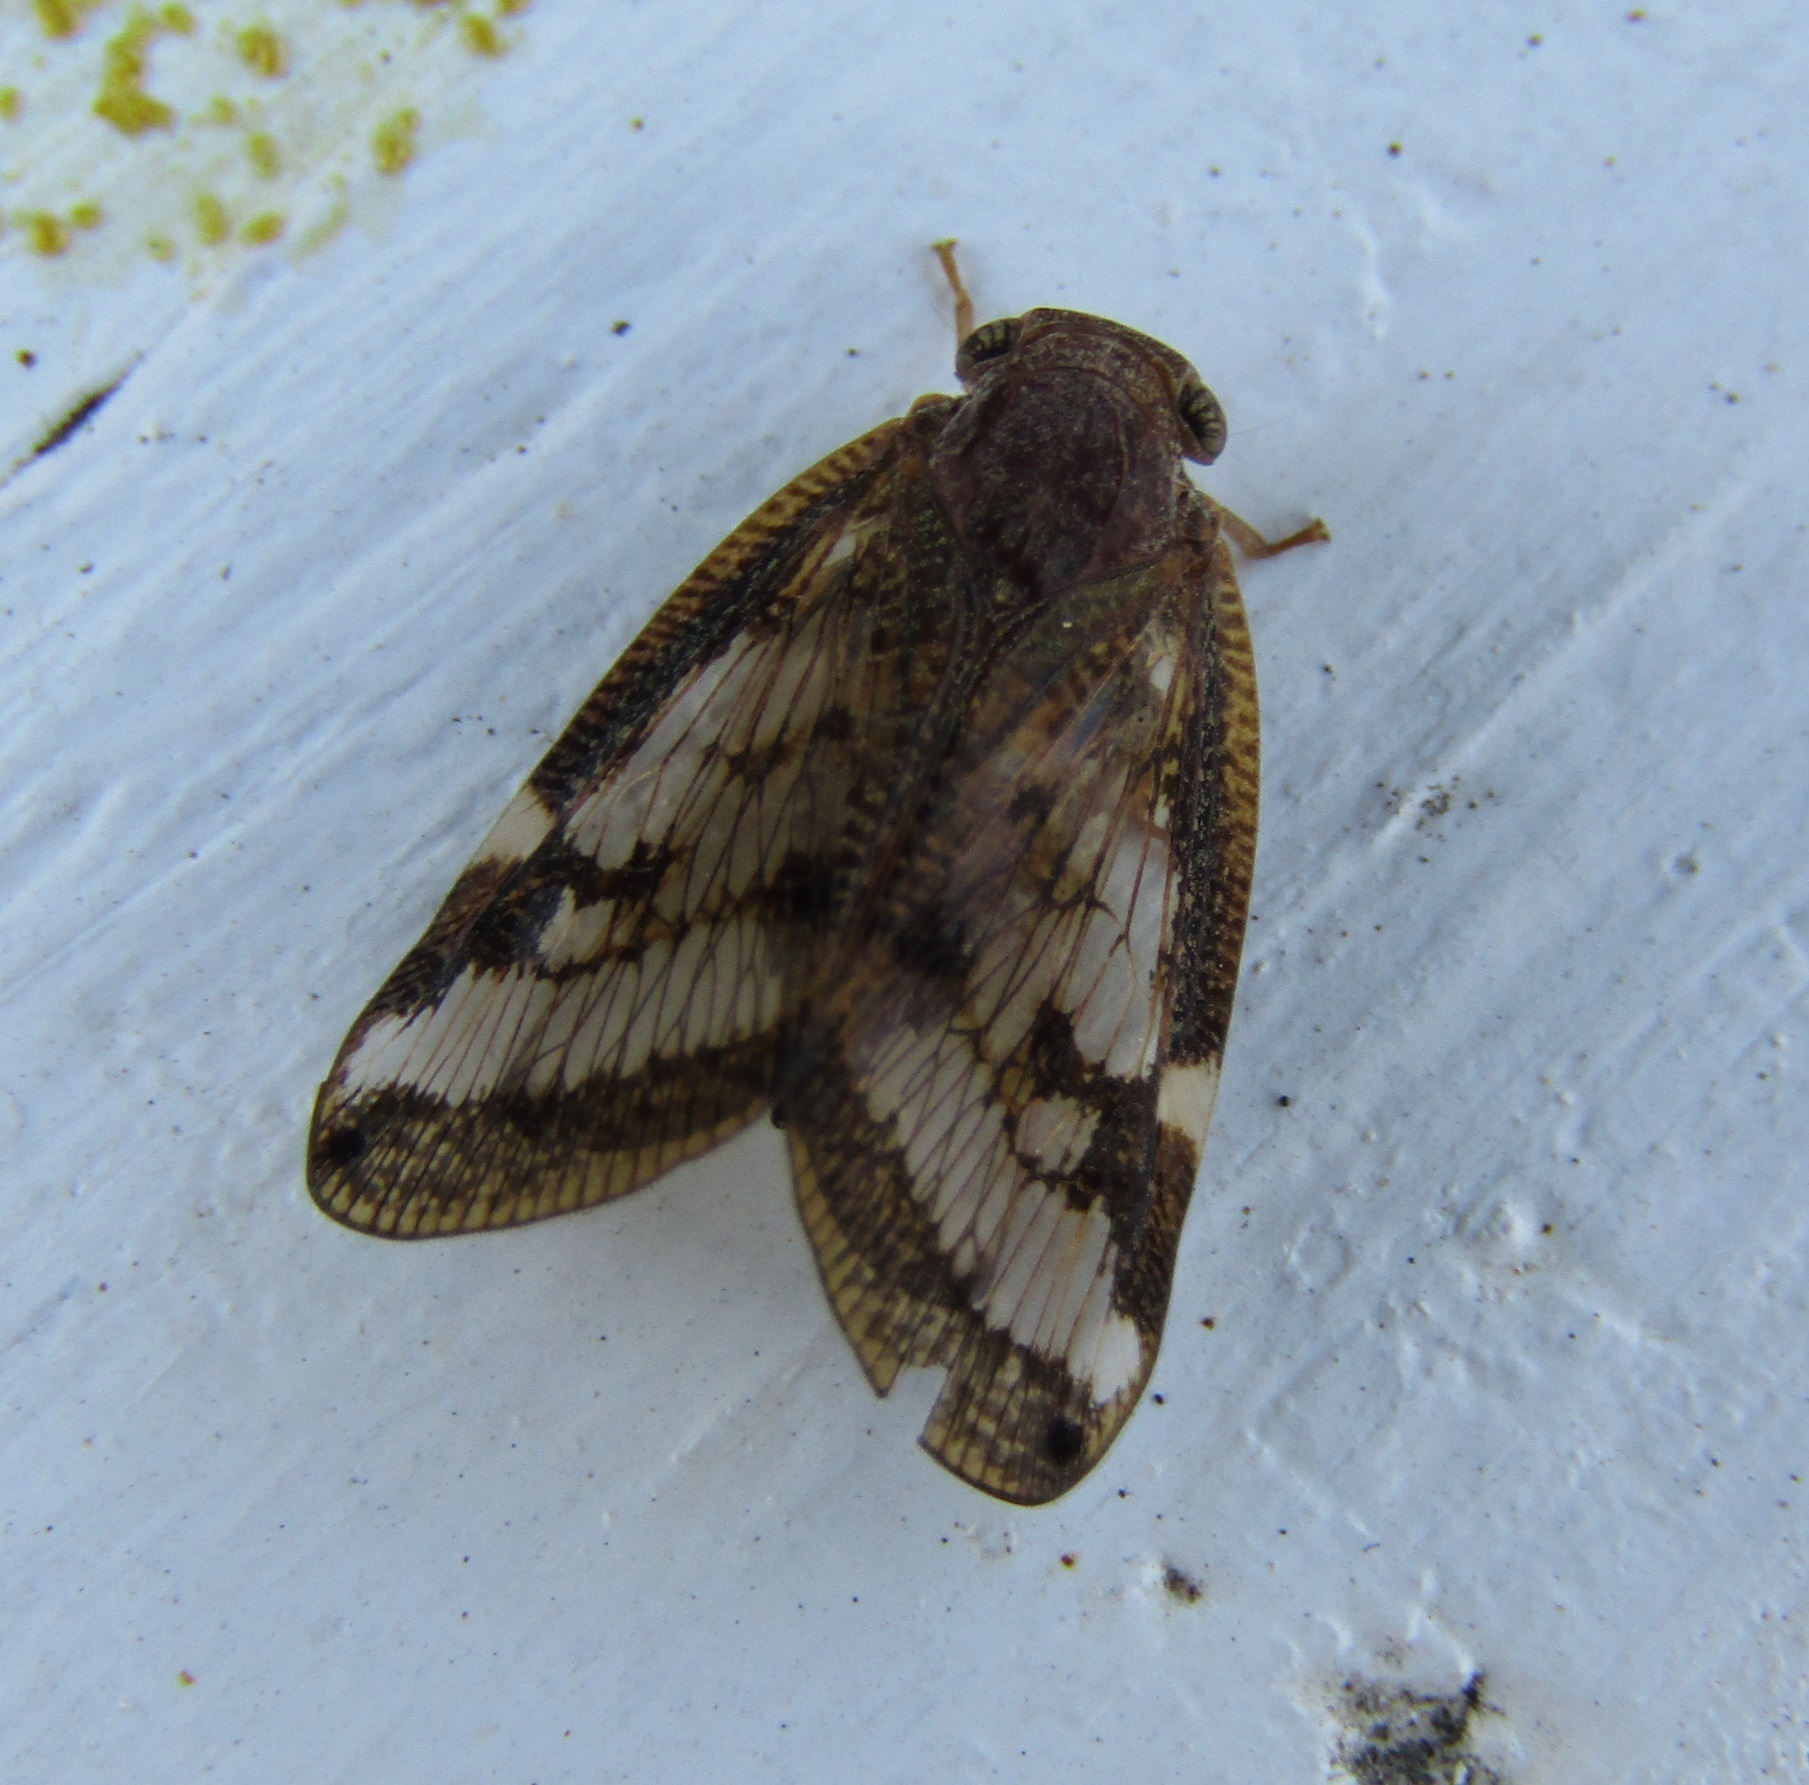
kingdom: Animalia
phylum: Arthropoda
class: Insecta
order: Hemiptera
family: Ricaniidae
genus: Scolypopa
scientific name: Scolypopa australis
